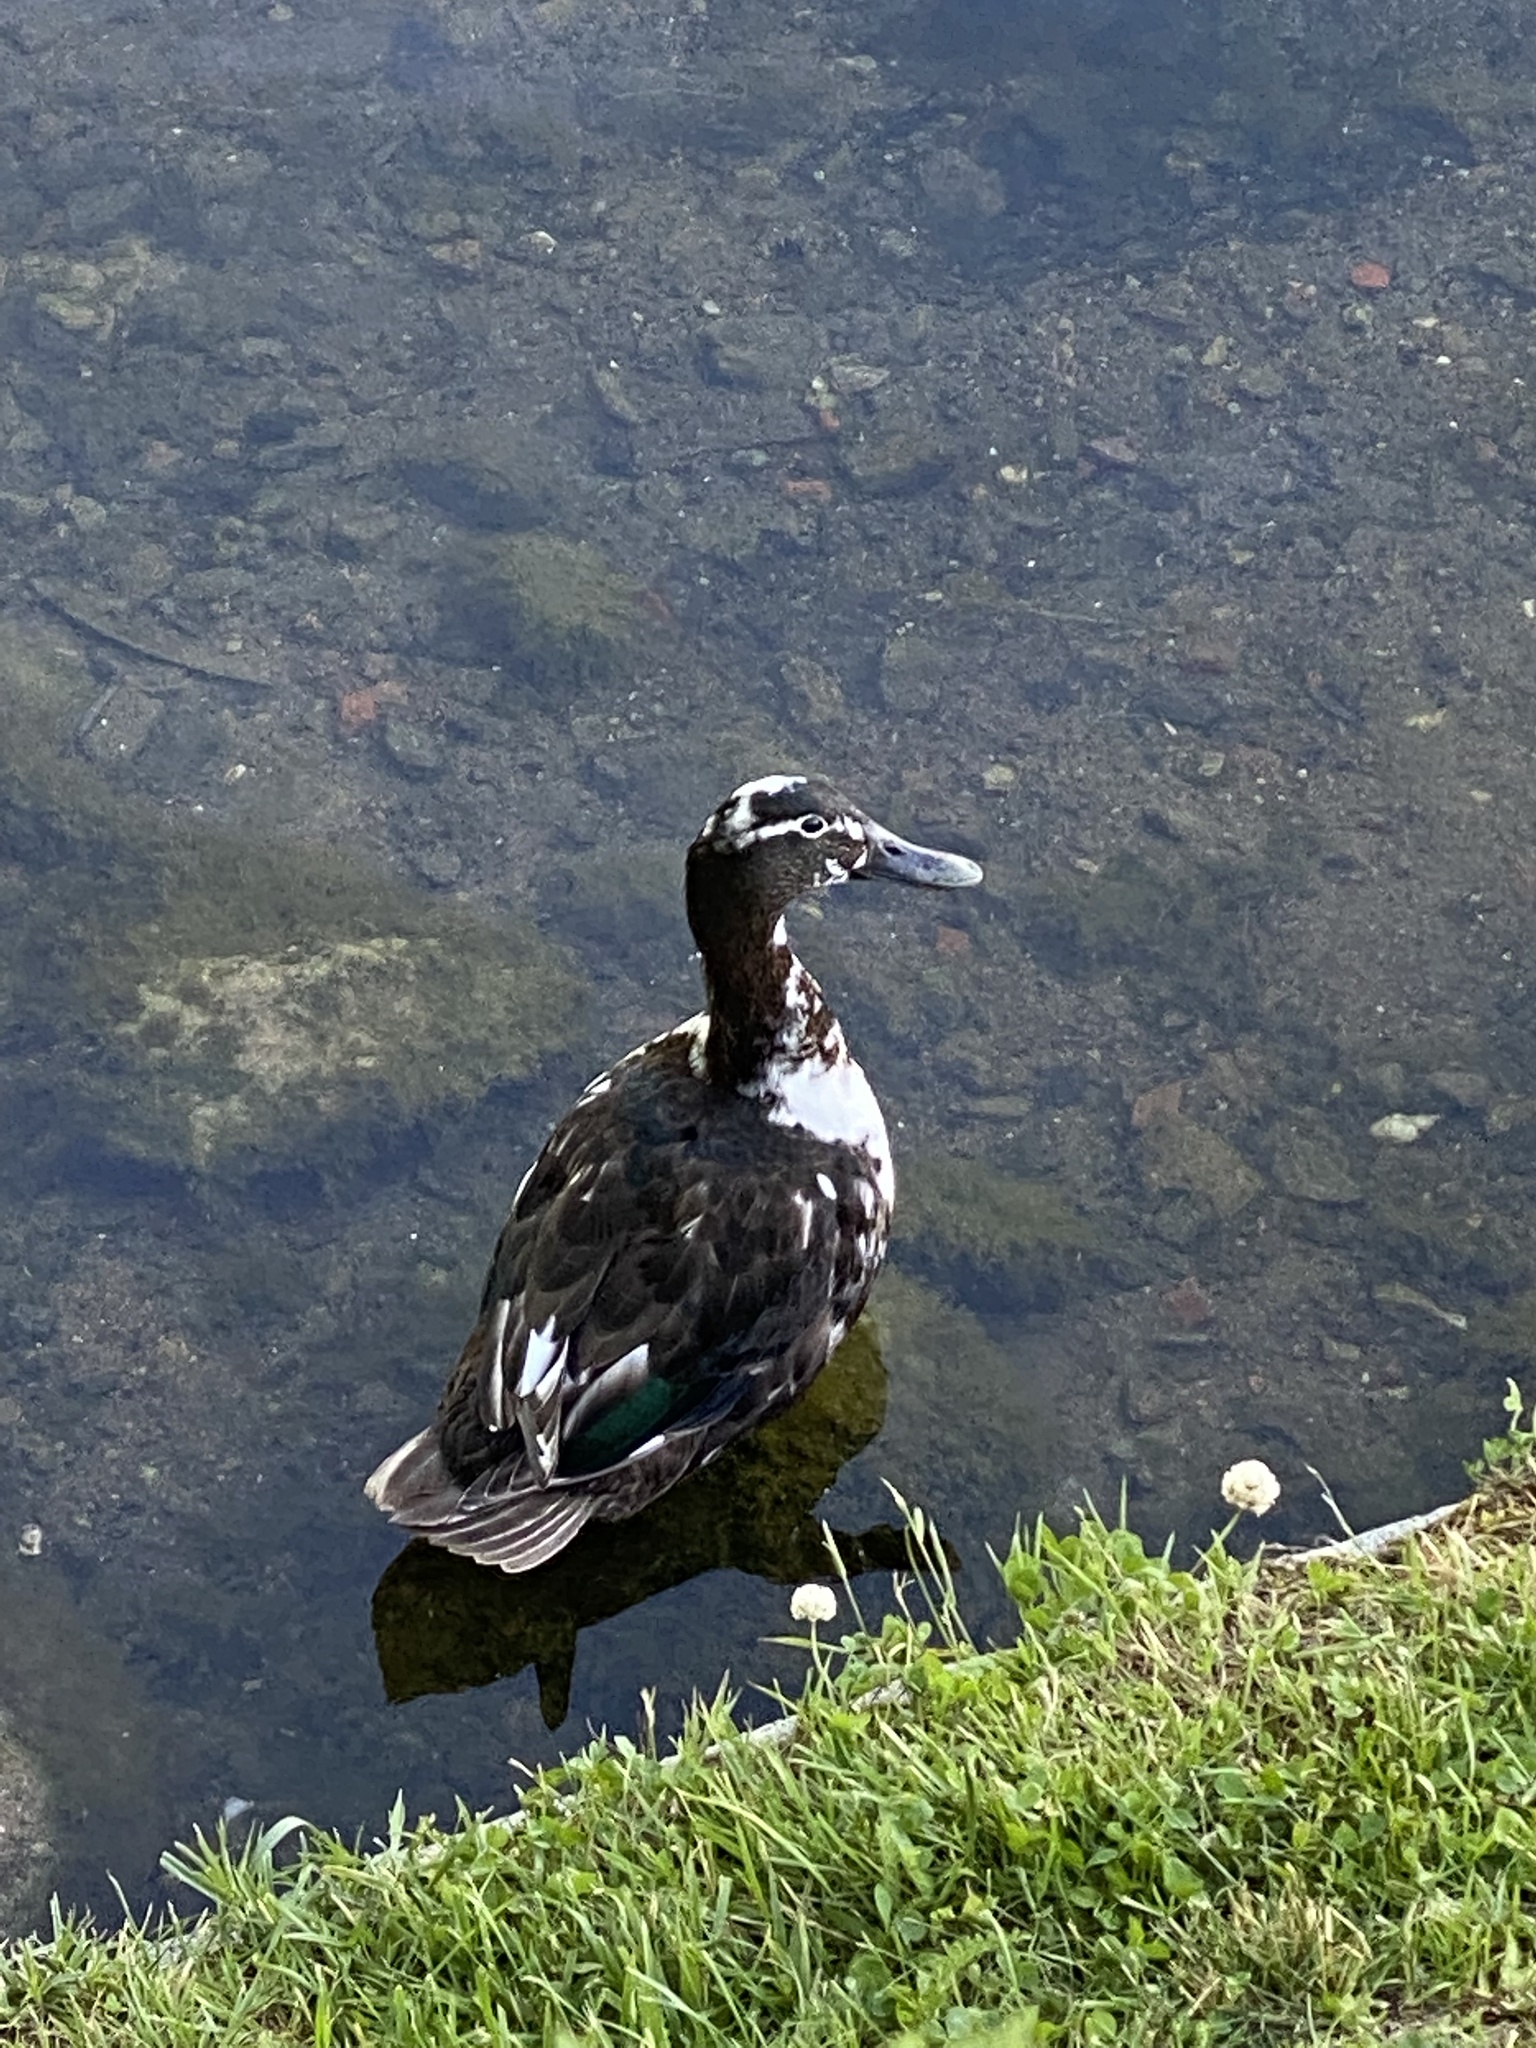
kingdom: Animalia
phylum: Chordata
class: Aves
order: Anseriformes
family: Anatidae
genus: Anas
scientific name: Anas platyrhynchos
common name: Mallard
